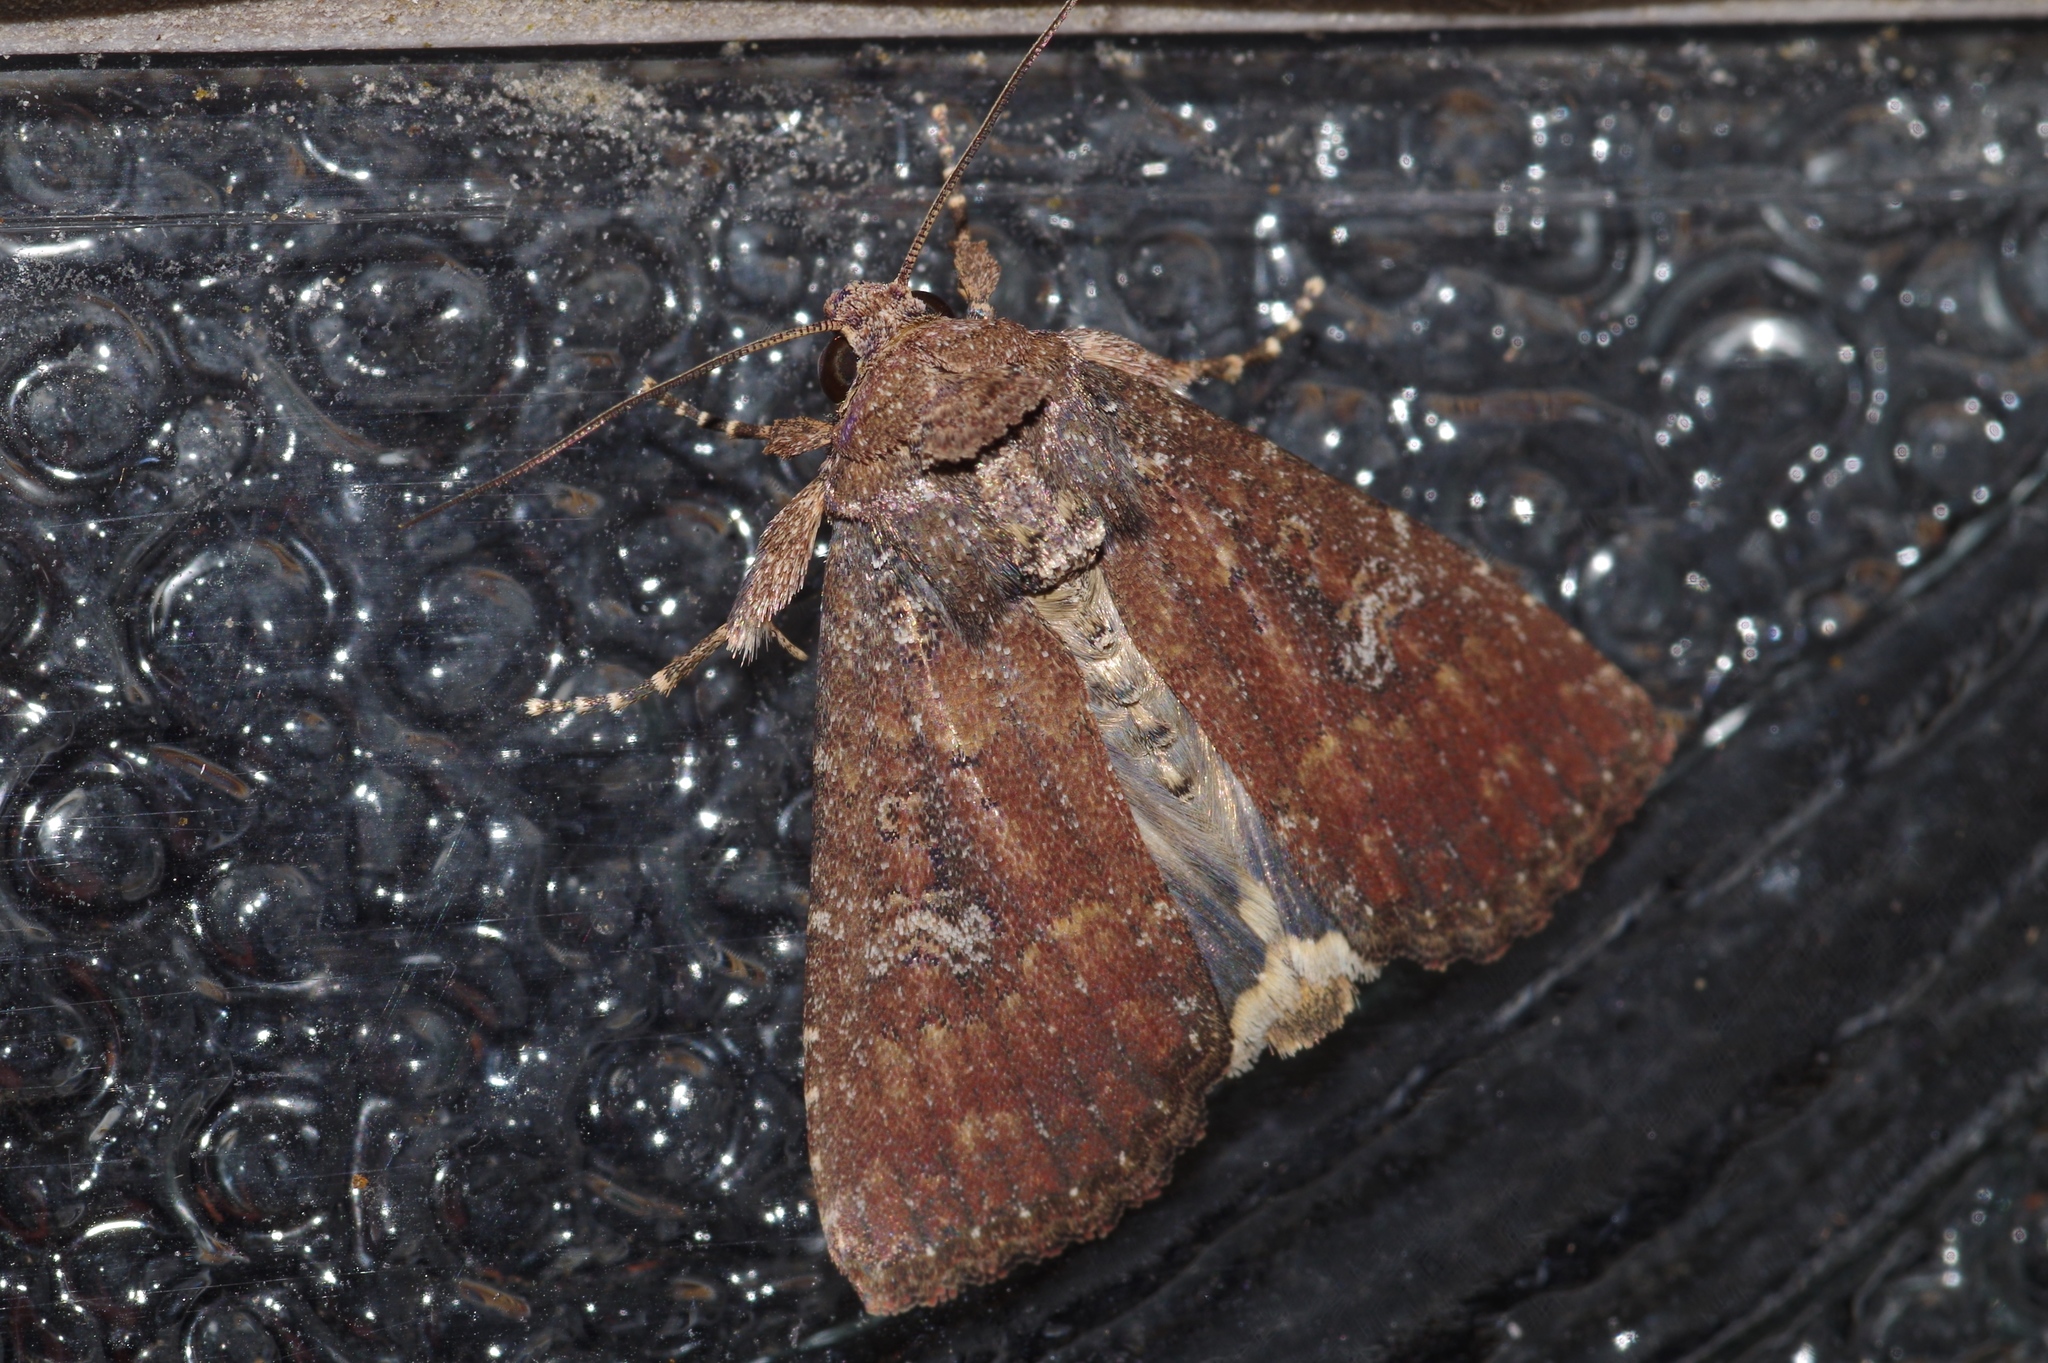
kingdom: Animalia
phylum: Arthropoda
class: Insecta
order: Lepidoptera
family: Noctuidae
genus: Condica
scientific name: Condica illecta
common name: Cutworm
